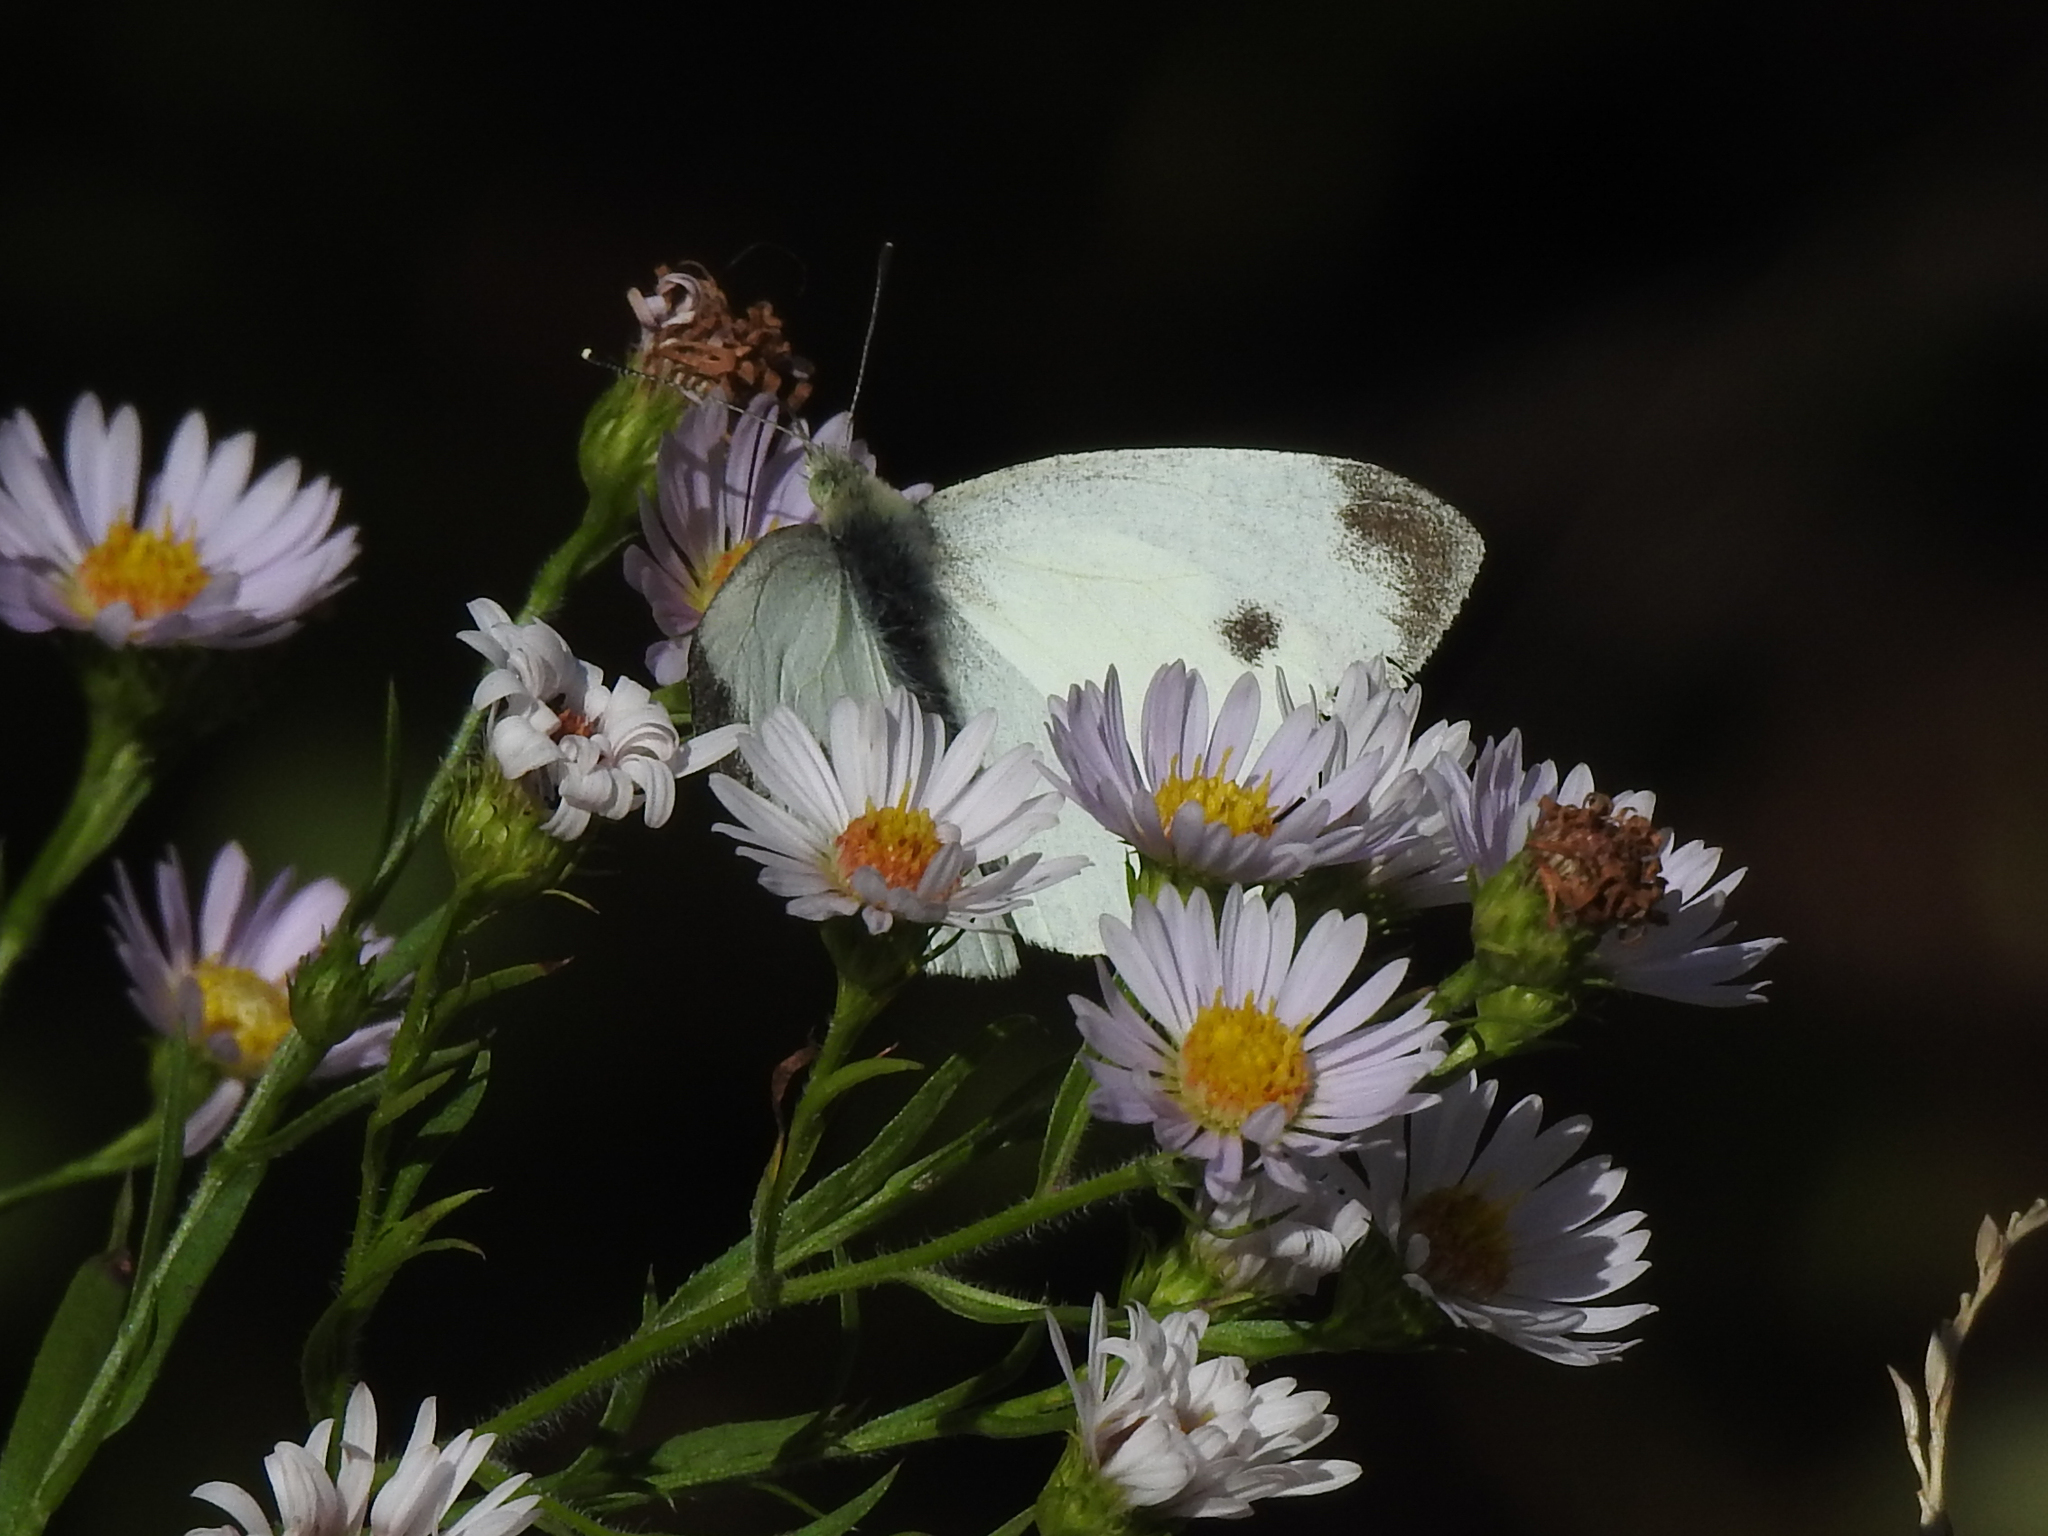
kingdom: Animalia
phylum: Arthropoda
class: Insecta
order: Lepidoptera
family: Pieridae
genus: Pieris
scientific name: Pieris rapae
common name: Small white
